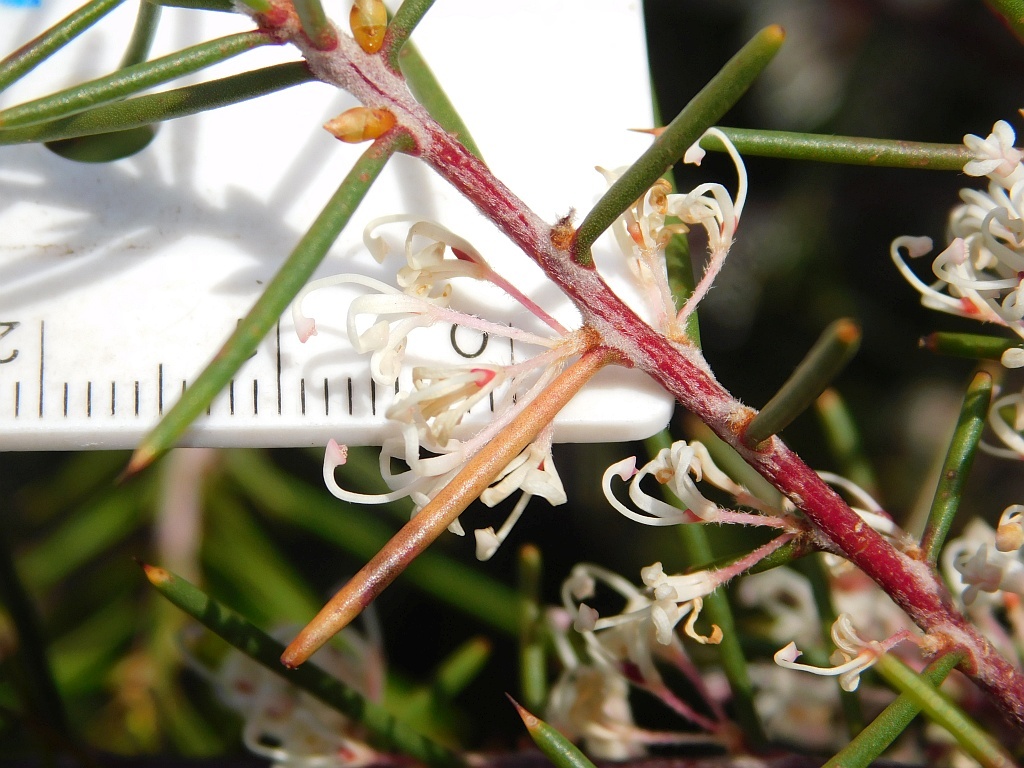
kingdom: Plantae
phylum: Tracheophyta
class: Magnoliopsida
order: Proteales
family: Proteaceae
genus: Hakea
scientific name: Hakea sericea
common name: Needle bush
